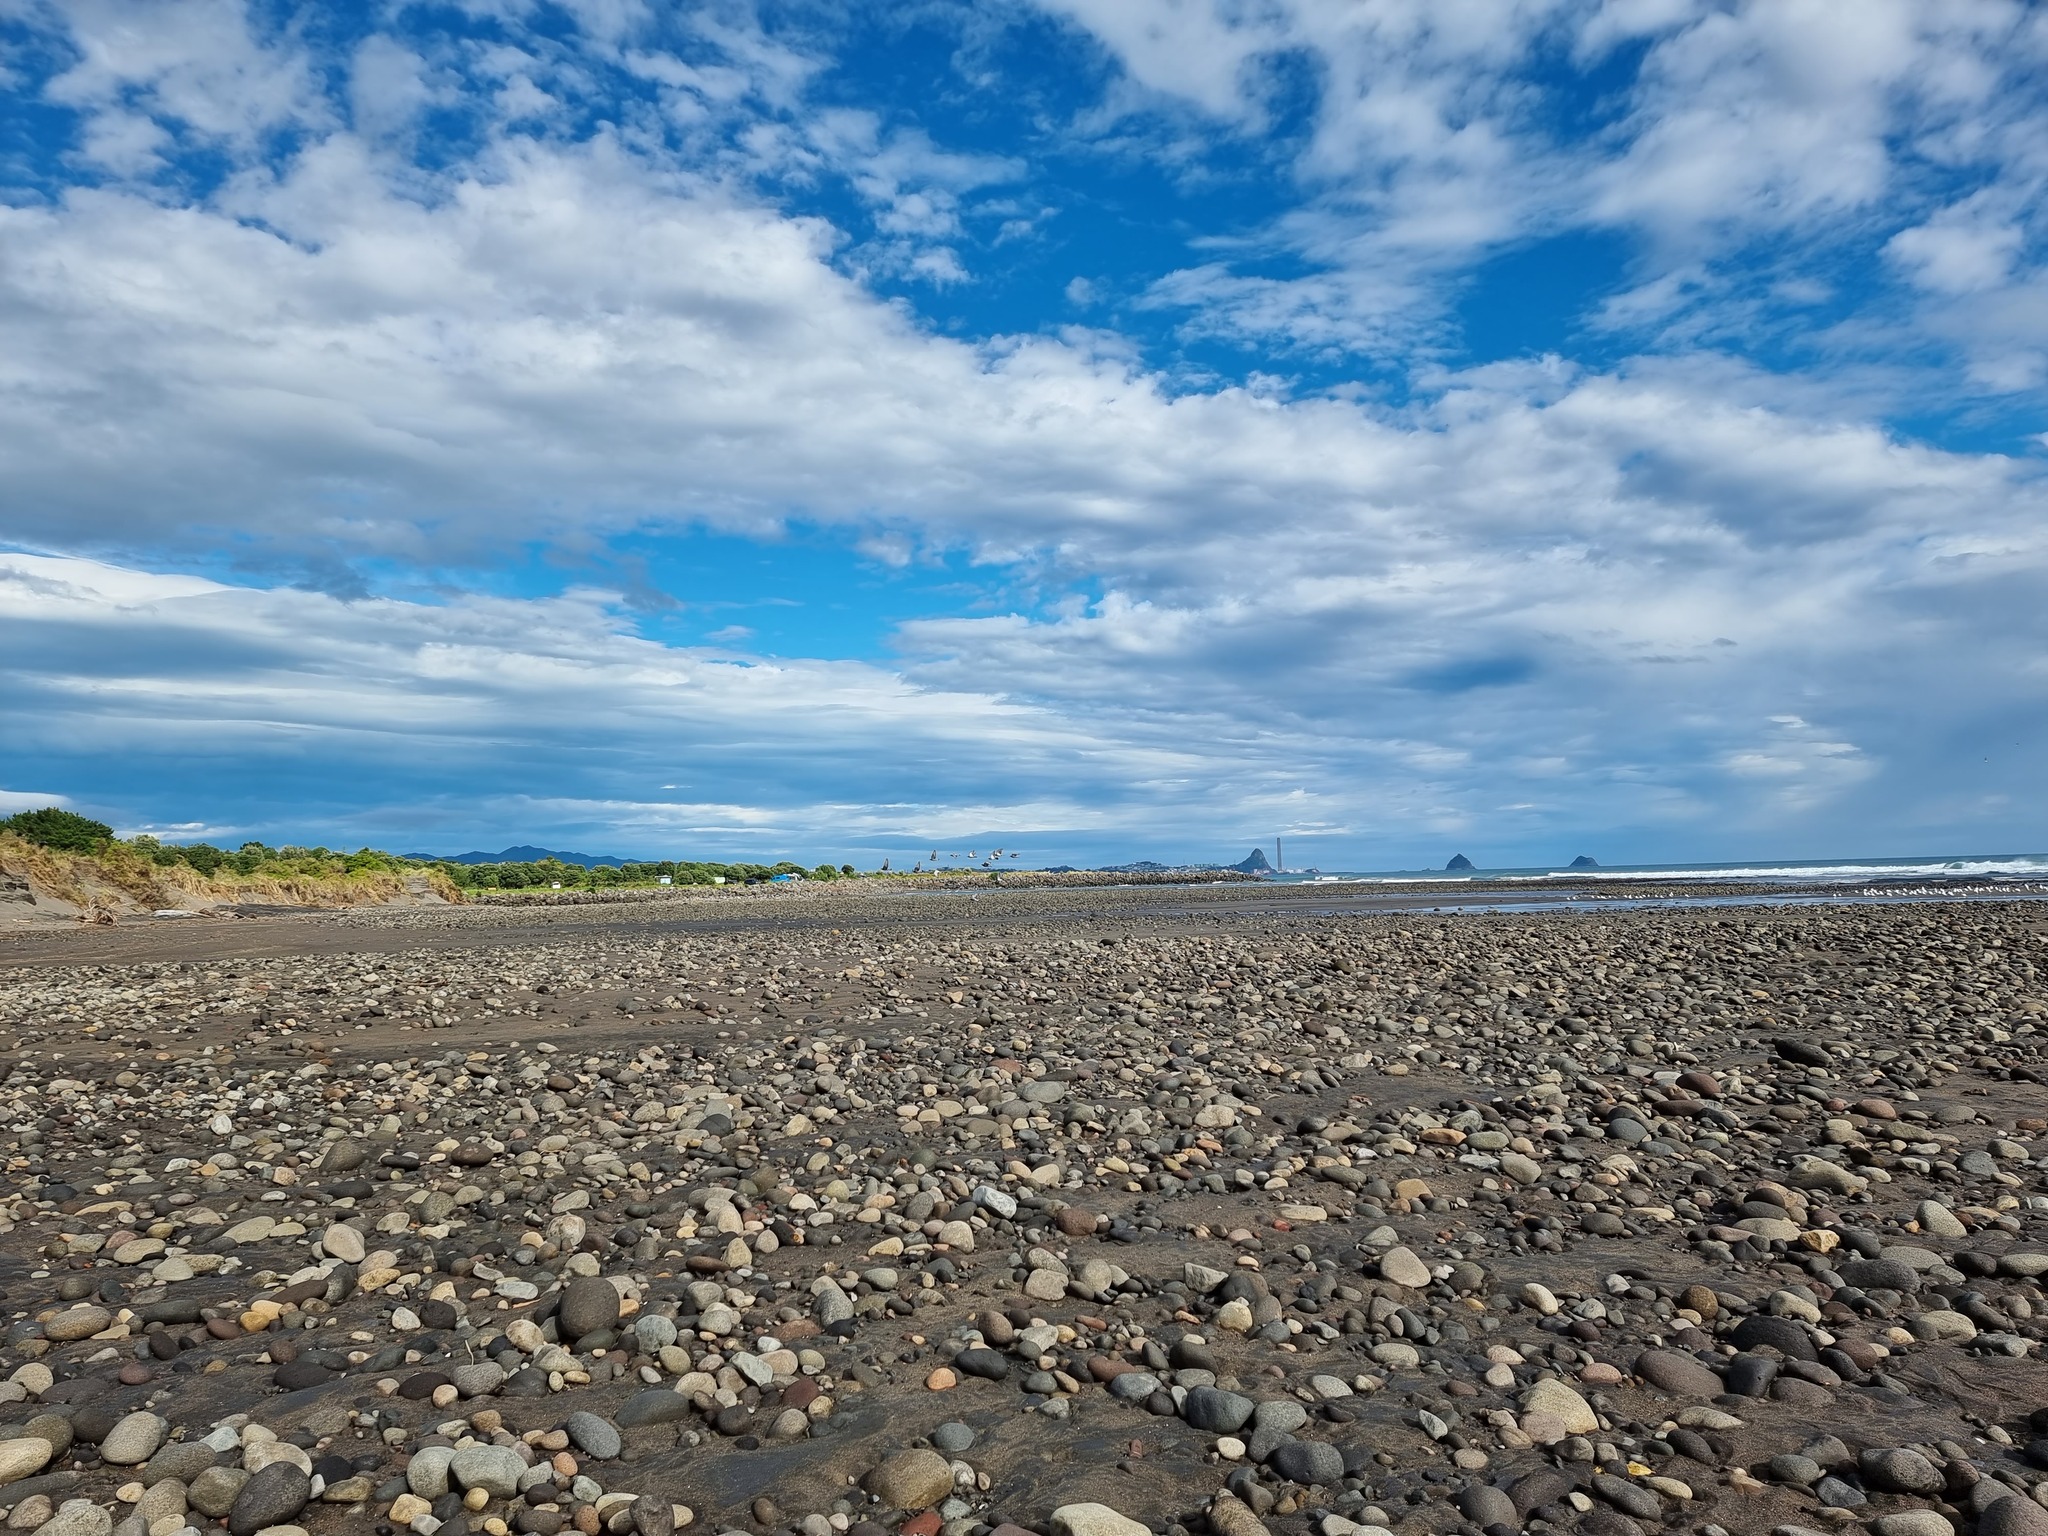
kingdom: Animalia
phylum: Chordata
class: Aves
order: Columbiformes
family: Columbidae
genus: Columba
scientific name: Columba livia
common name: Rock pigeon
